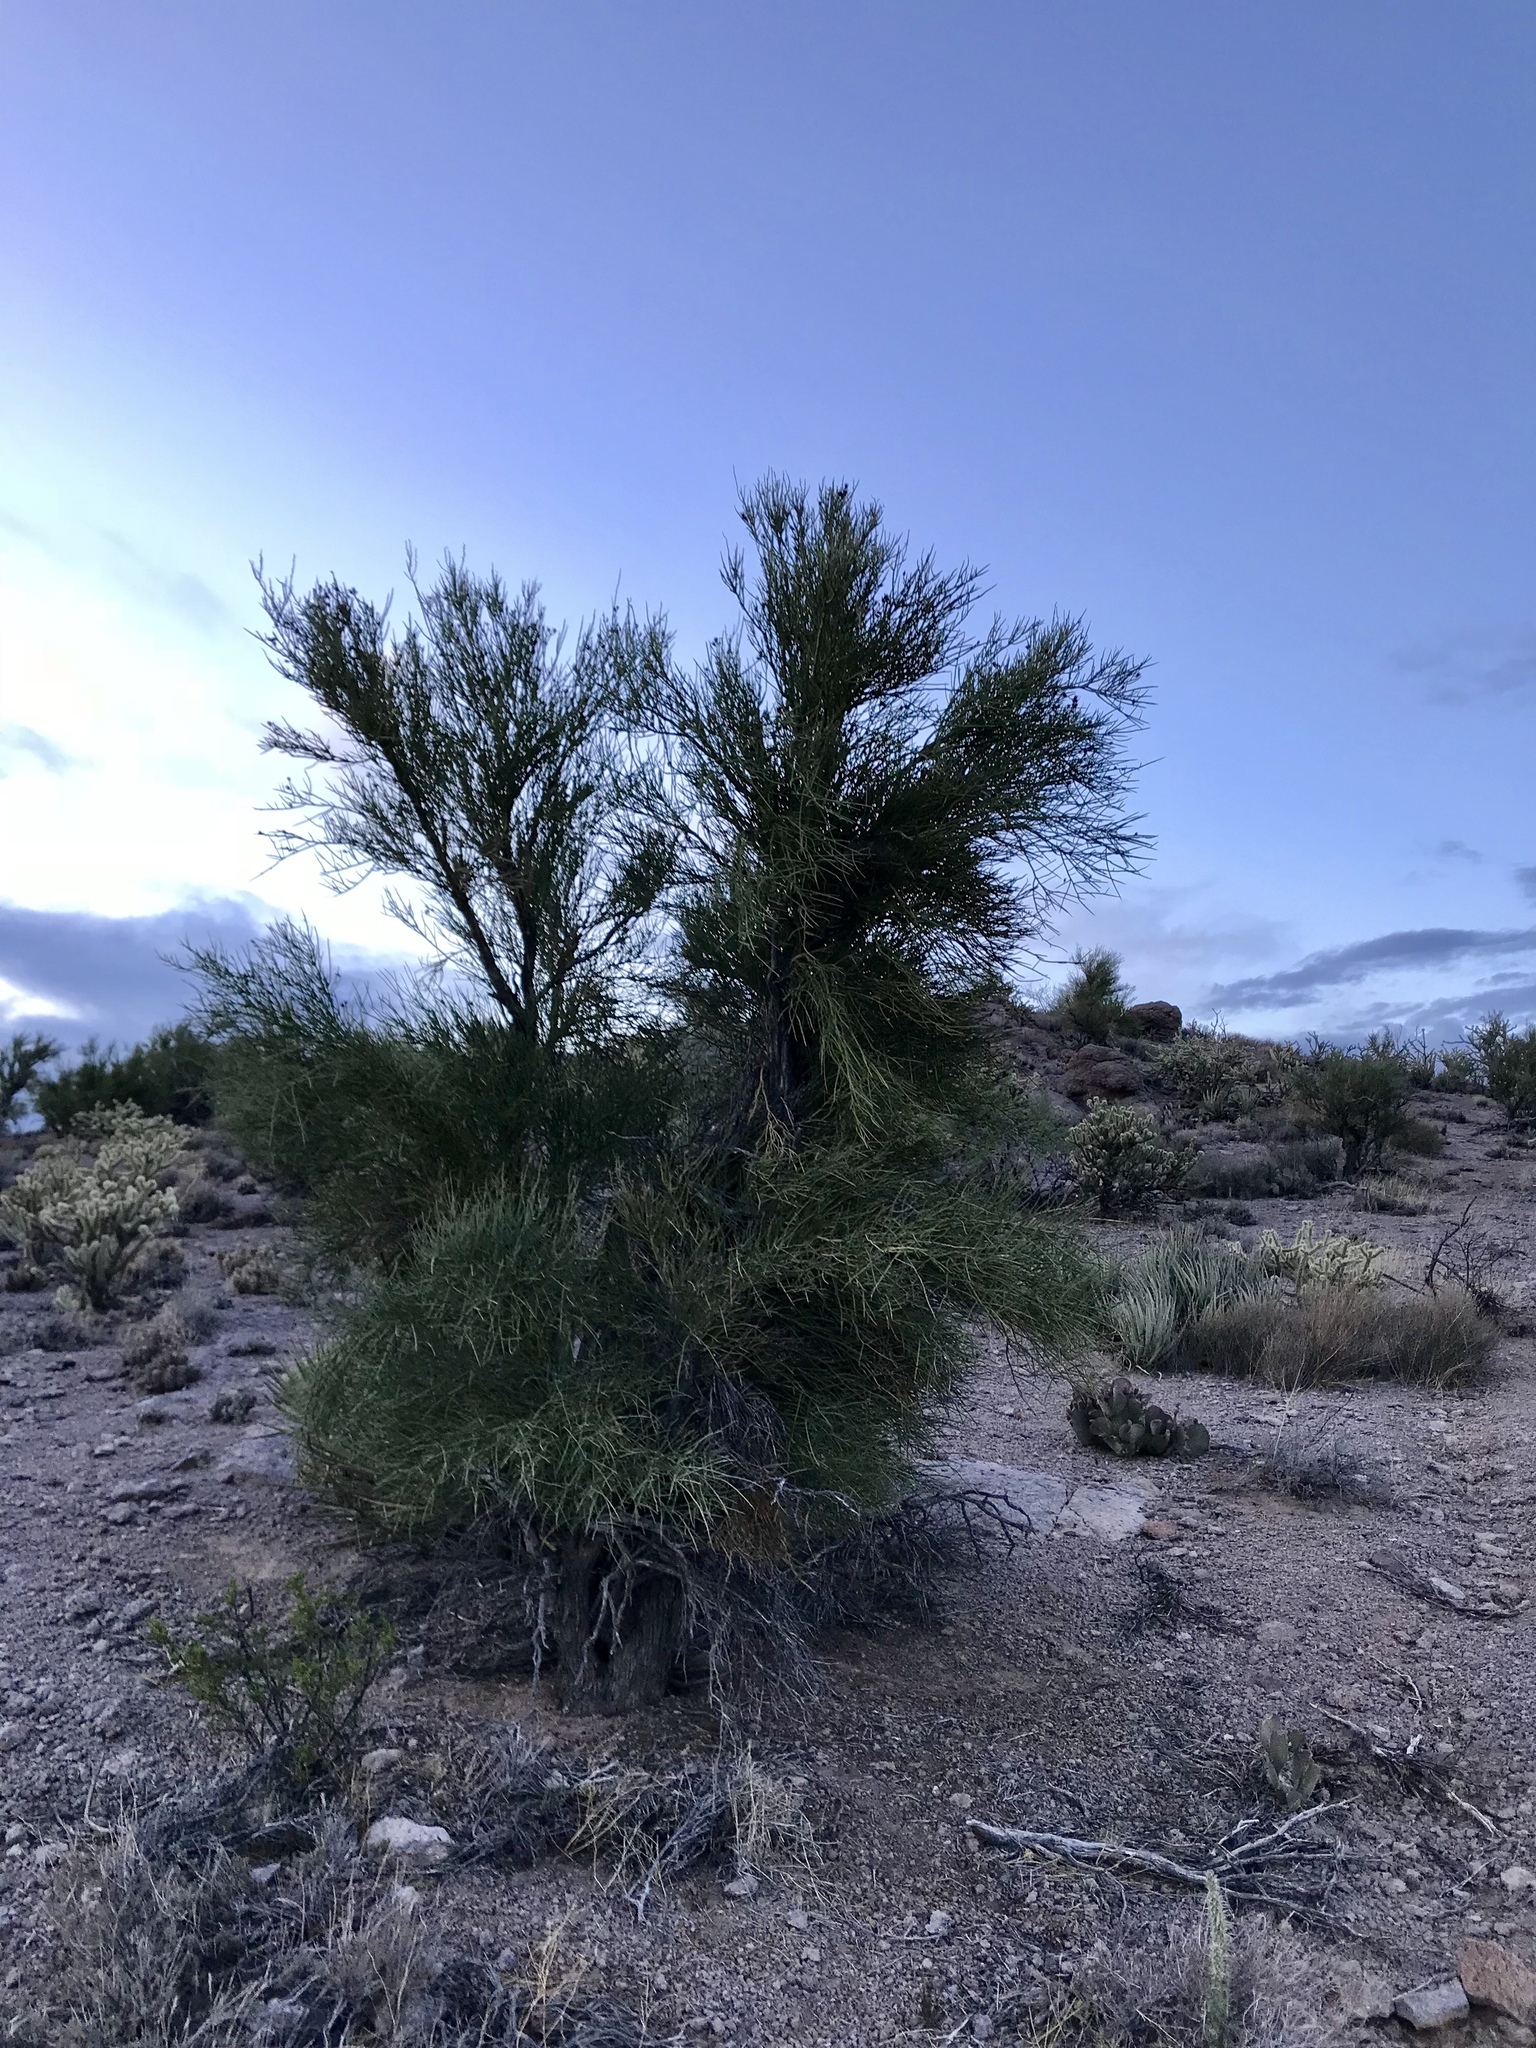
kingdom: Plantae
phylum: Tracheophyta
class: Magnoliopsida
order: Celastrales
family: Celastraceae
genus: Canotia
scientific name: Canotia holacantha
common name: Crucifixion thorns
